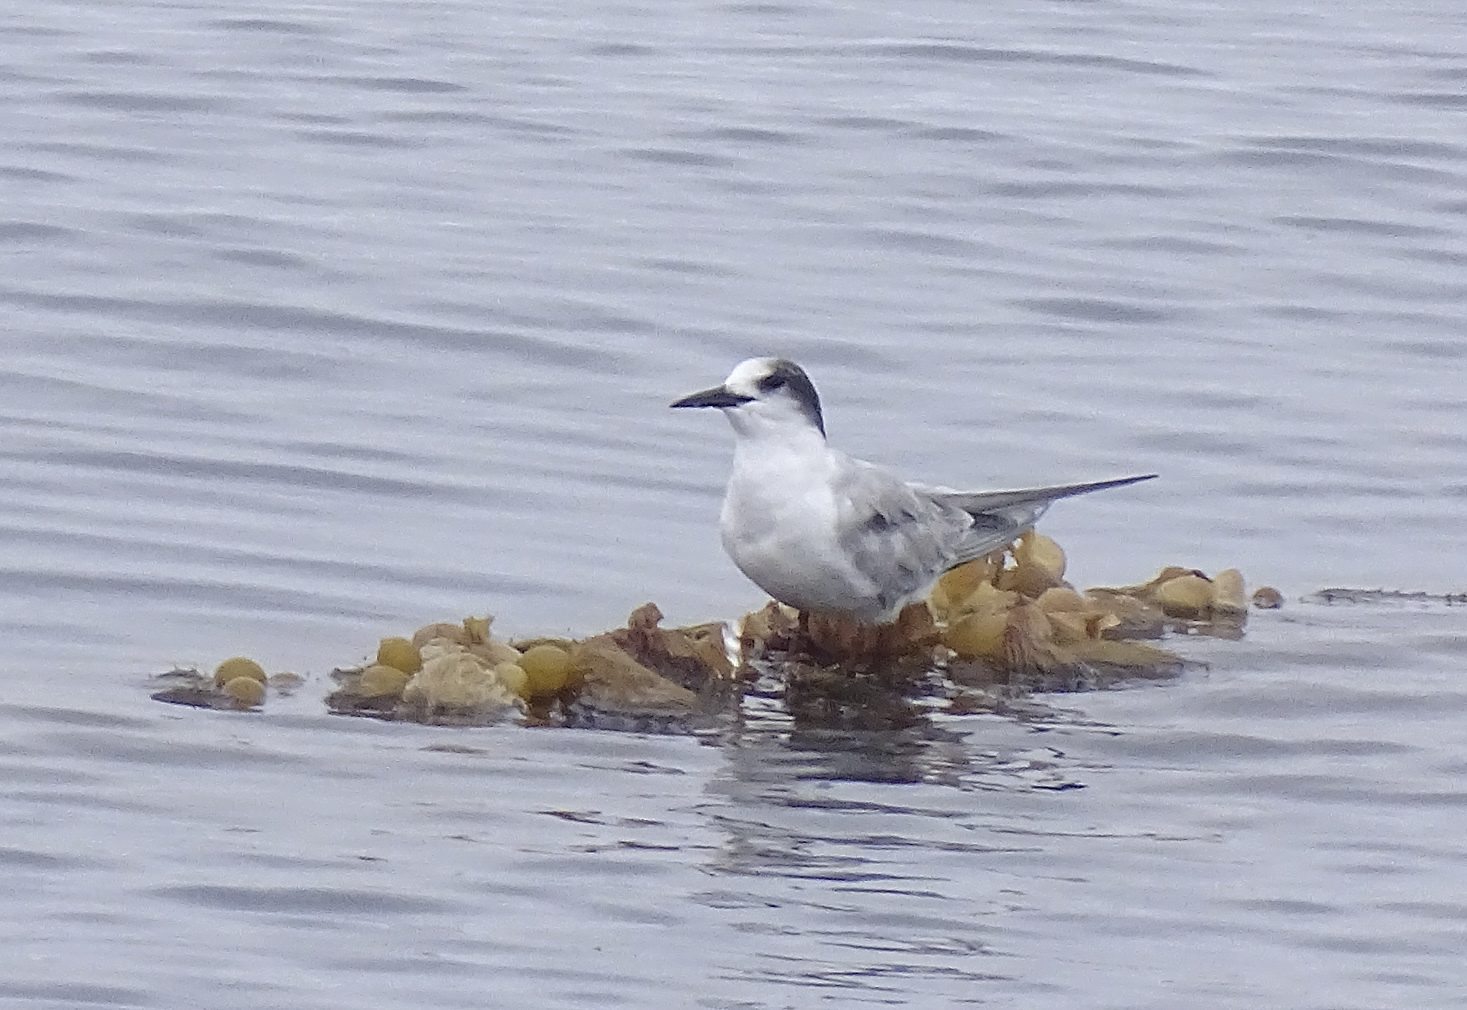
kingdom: Animalia
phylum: Chordata
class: Aves
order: Charadriiformes
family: Laridae
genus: Sterna
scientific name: Sterna hirundo
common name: Common tern
